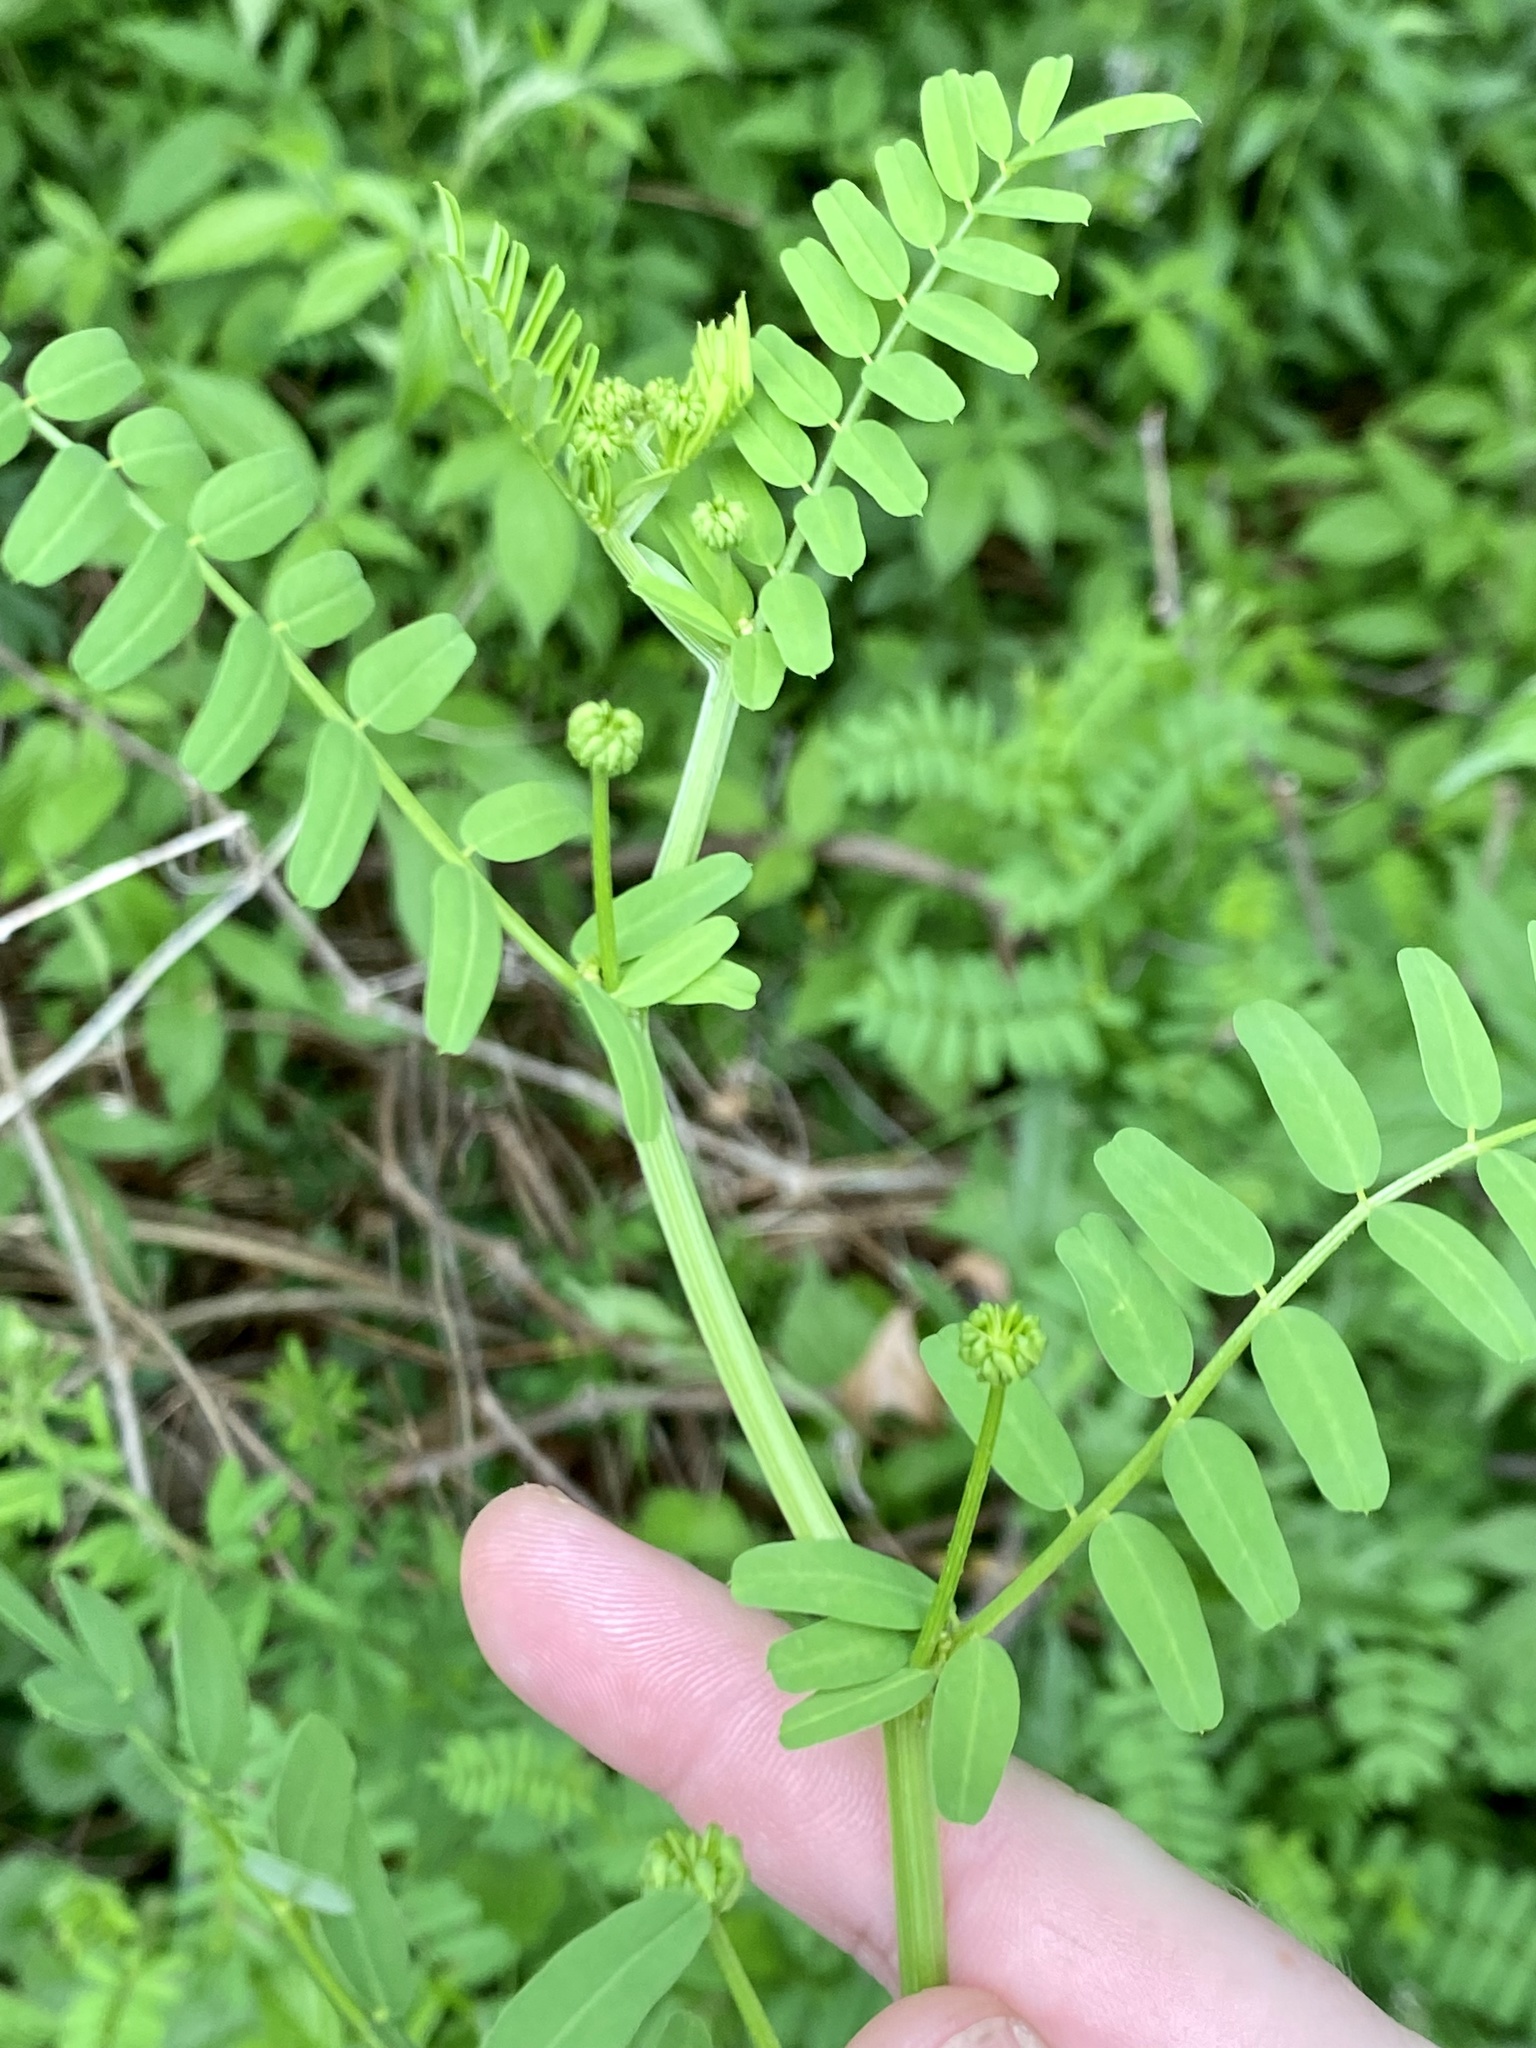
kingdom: Plantae
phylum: Tracheophyta
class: Magnoliopsida
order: Fabales
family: Fabaceae
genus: Coronilla
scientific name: Coronilla varia
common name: Crownvetch
